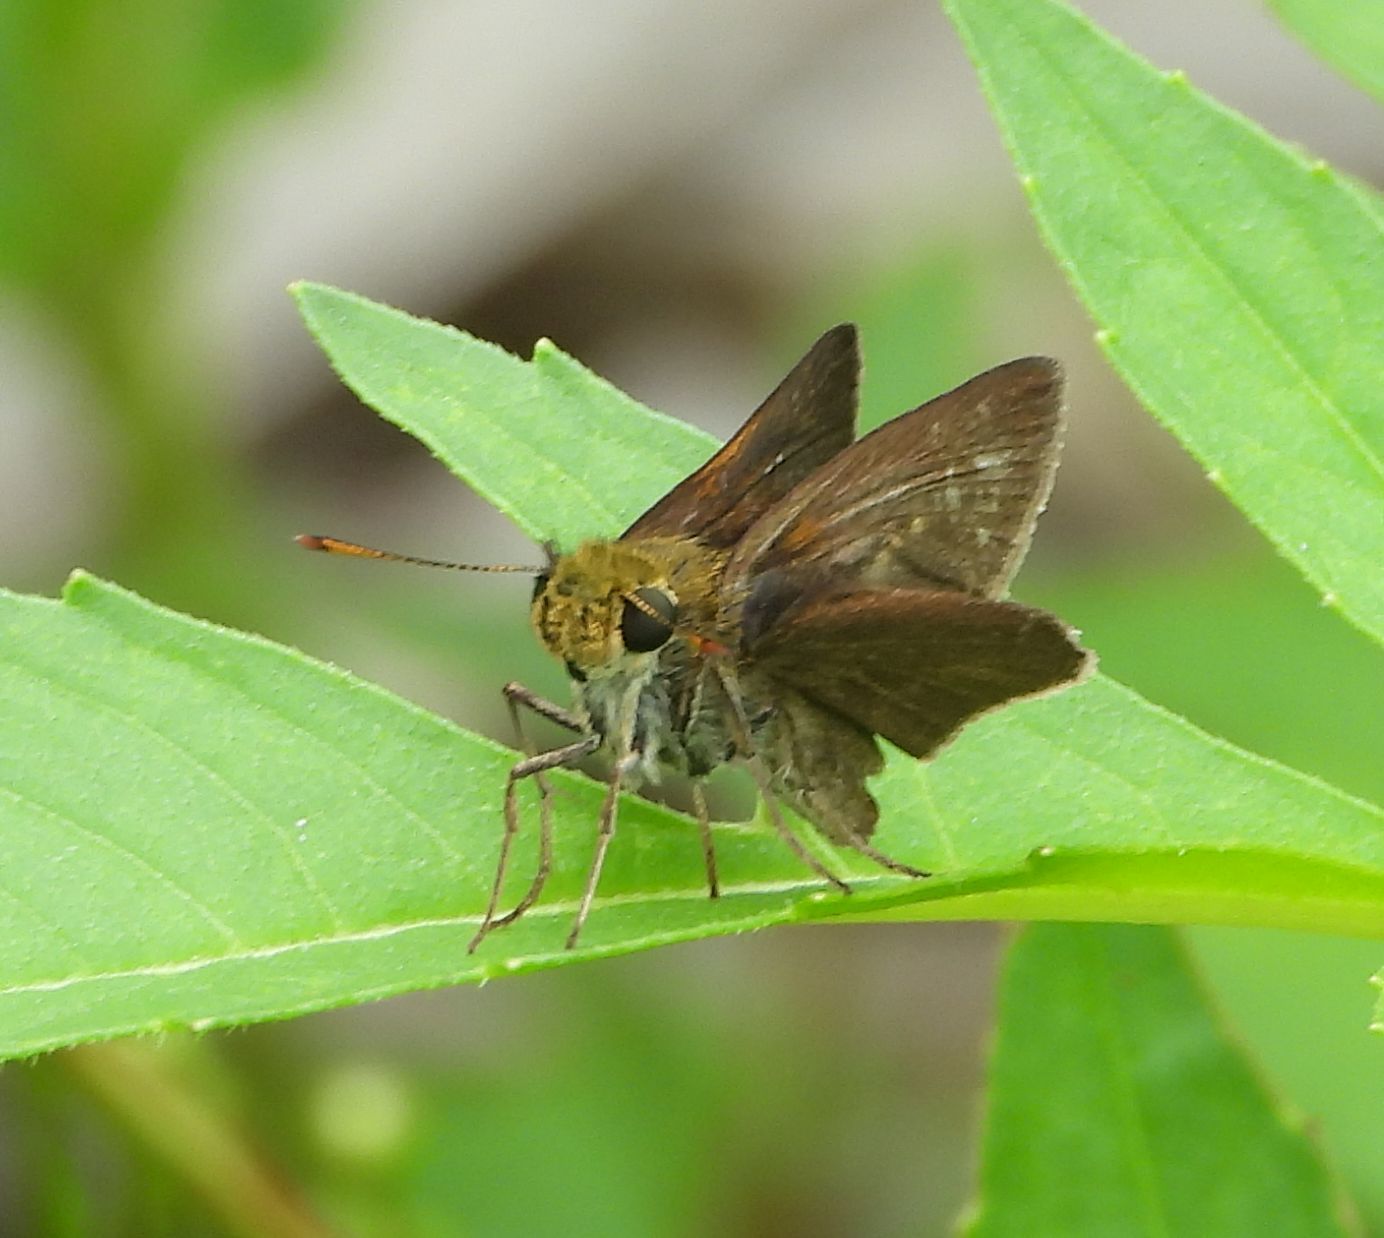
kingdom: Animalia
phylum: Arthropoda
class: Insecta
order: Lepidoptera
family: Hesperiidae
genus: Euphyes
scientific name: Euphyes vestris
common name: Dun skipper
